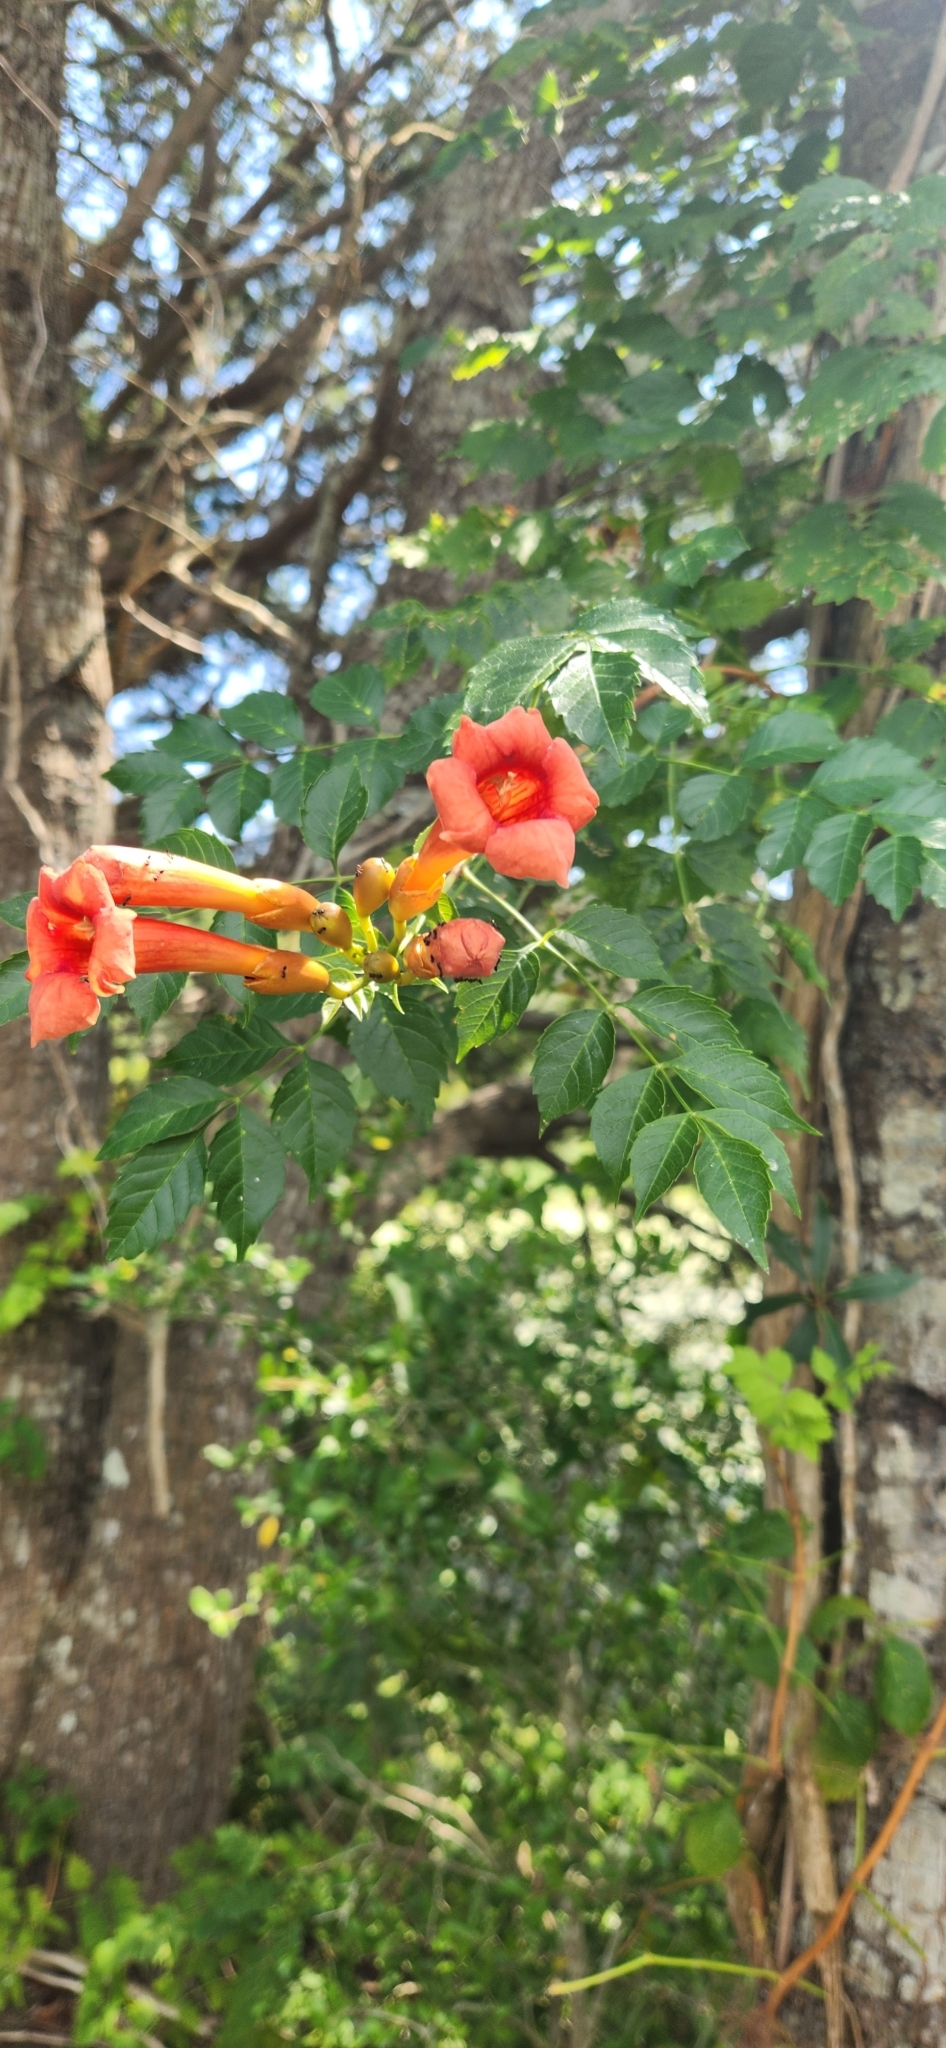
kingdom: Plantae
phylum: Tracheophyta
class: Magnoliopsida
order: Lamiales
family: Bignoniaceae
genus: Campsis
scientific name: Campsis radicans
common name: Trumpet-creeper
